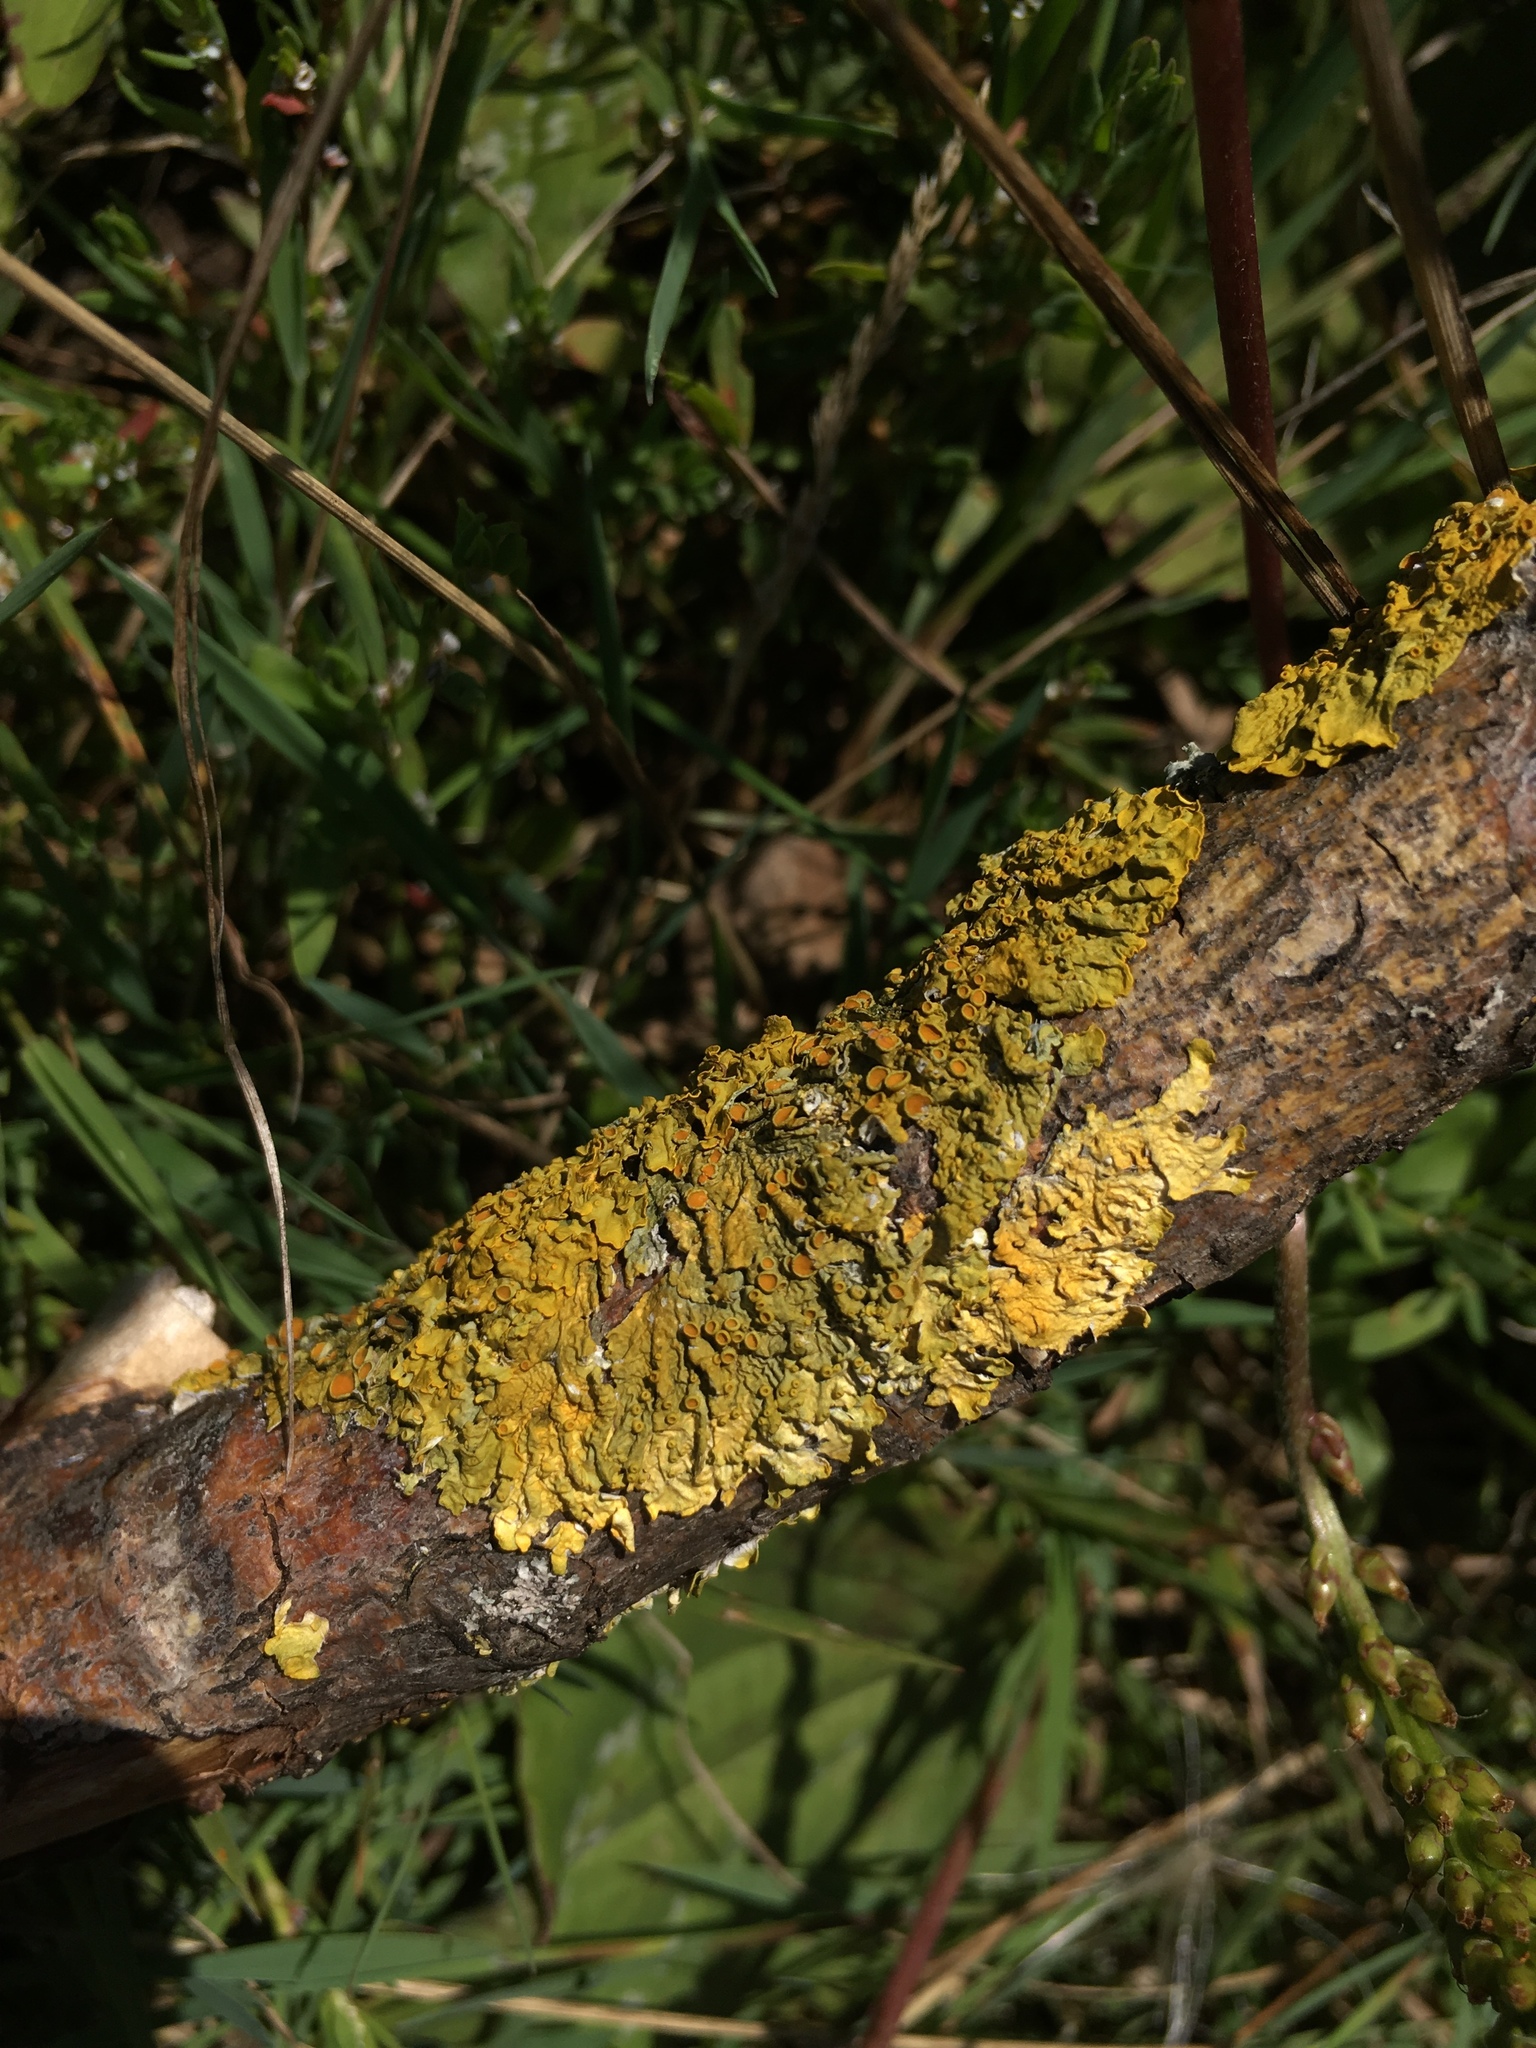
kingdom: Fungi
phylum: Ascomycota
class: Lecanoromycetes
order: Teloschistales
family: Teloschistaceae
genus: Xanthoria
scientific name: Xanthoria parietina
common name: Common orange lichen
